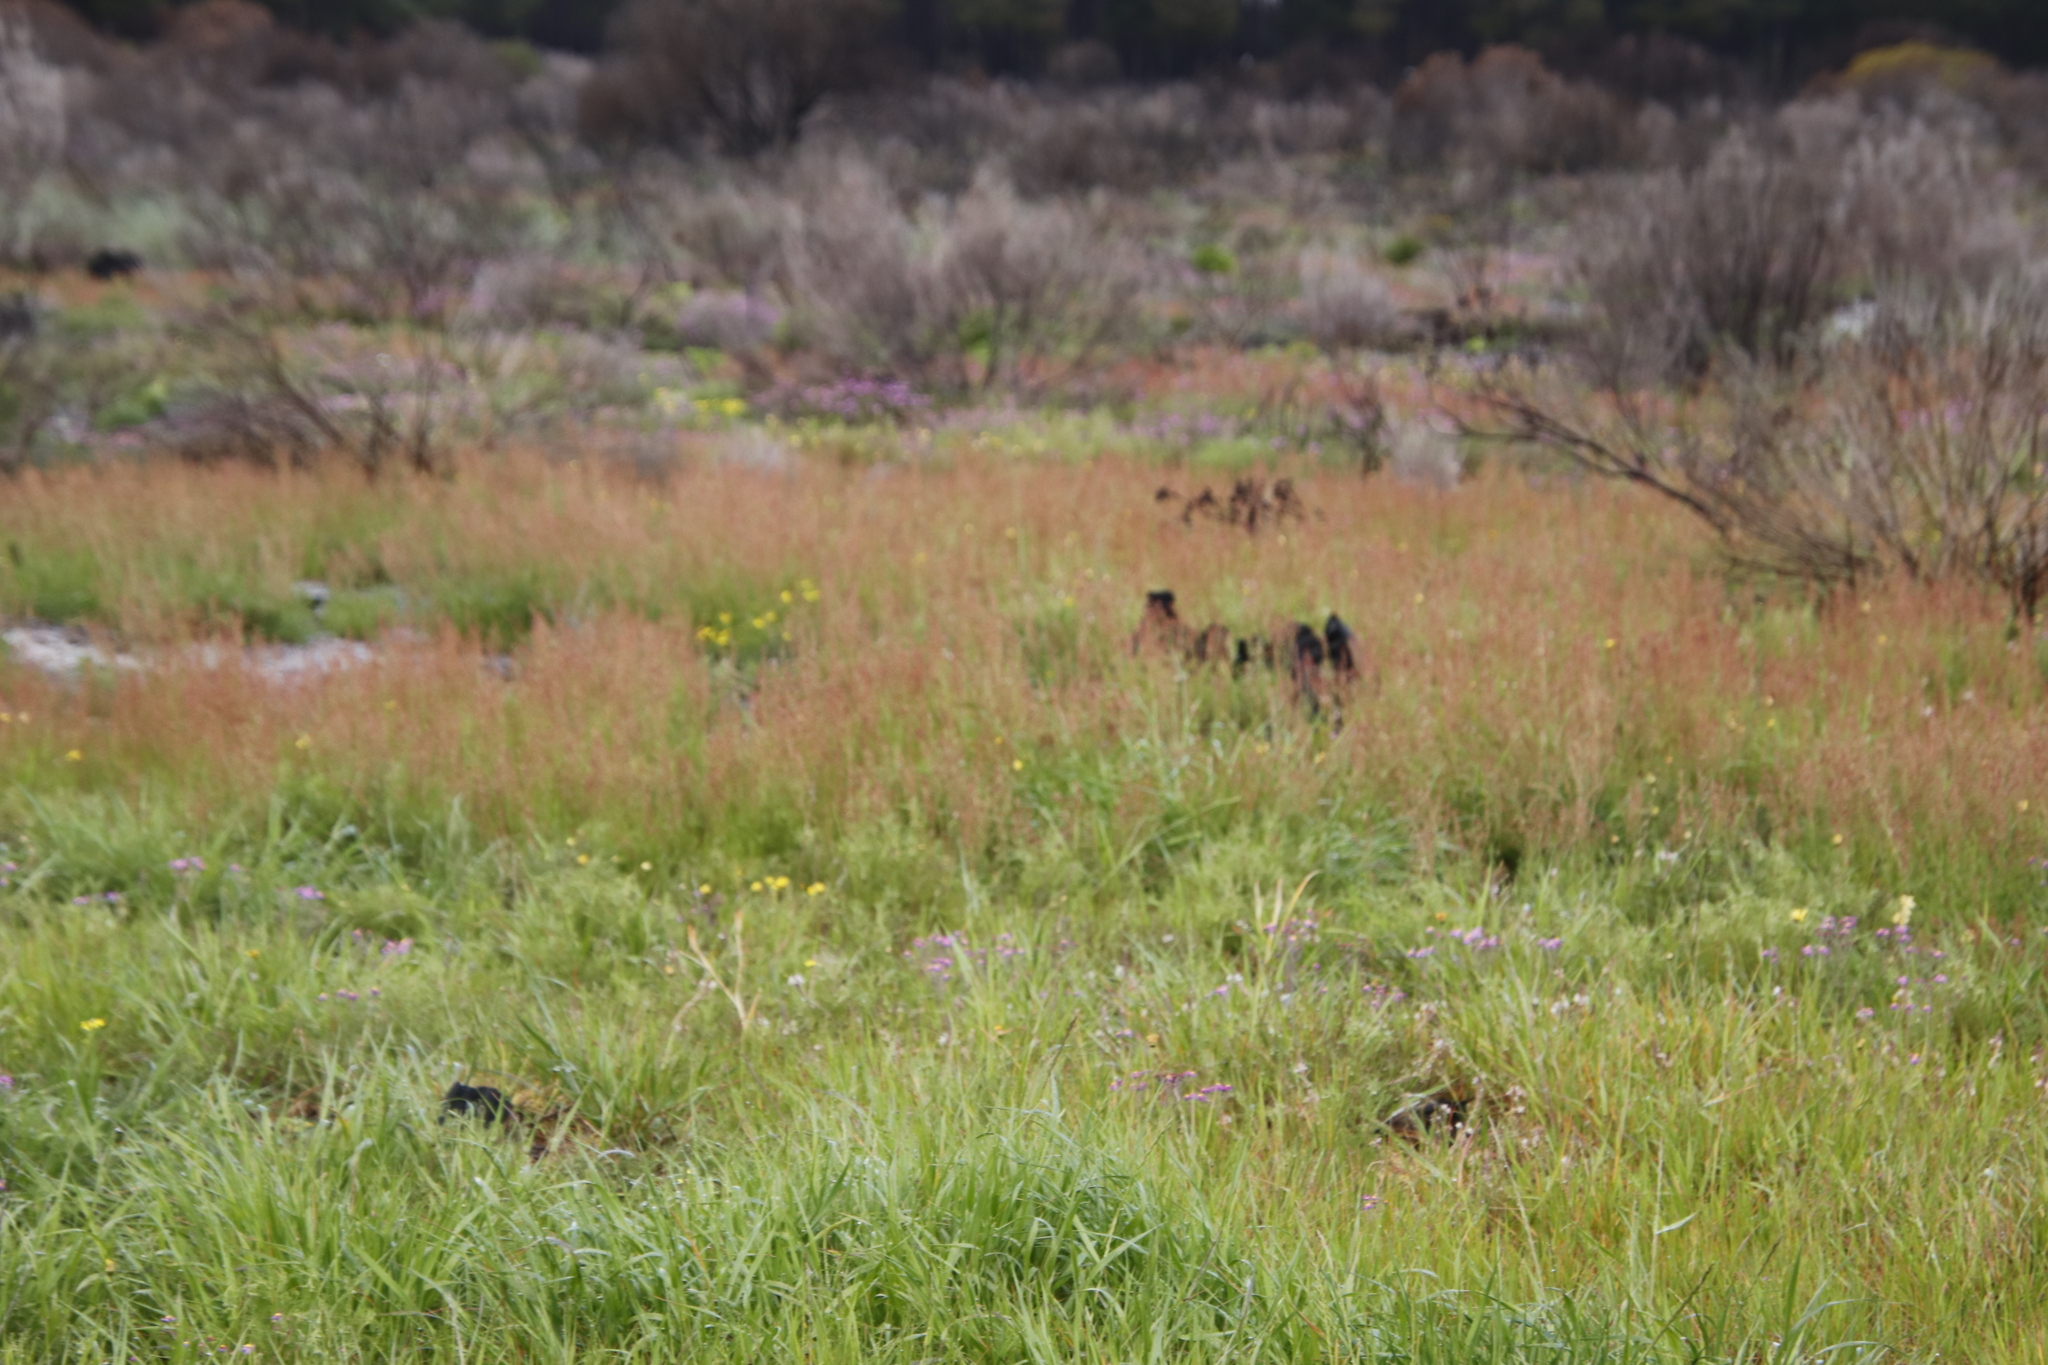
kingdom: Plantae
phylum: Tracheophyta
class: Magnoliopsida
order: Caryophyllales
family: Polygonaceae
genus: Rumex
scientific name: Rumex acetosella
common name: Common sheep sorrel
